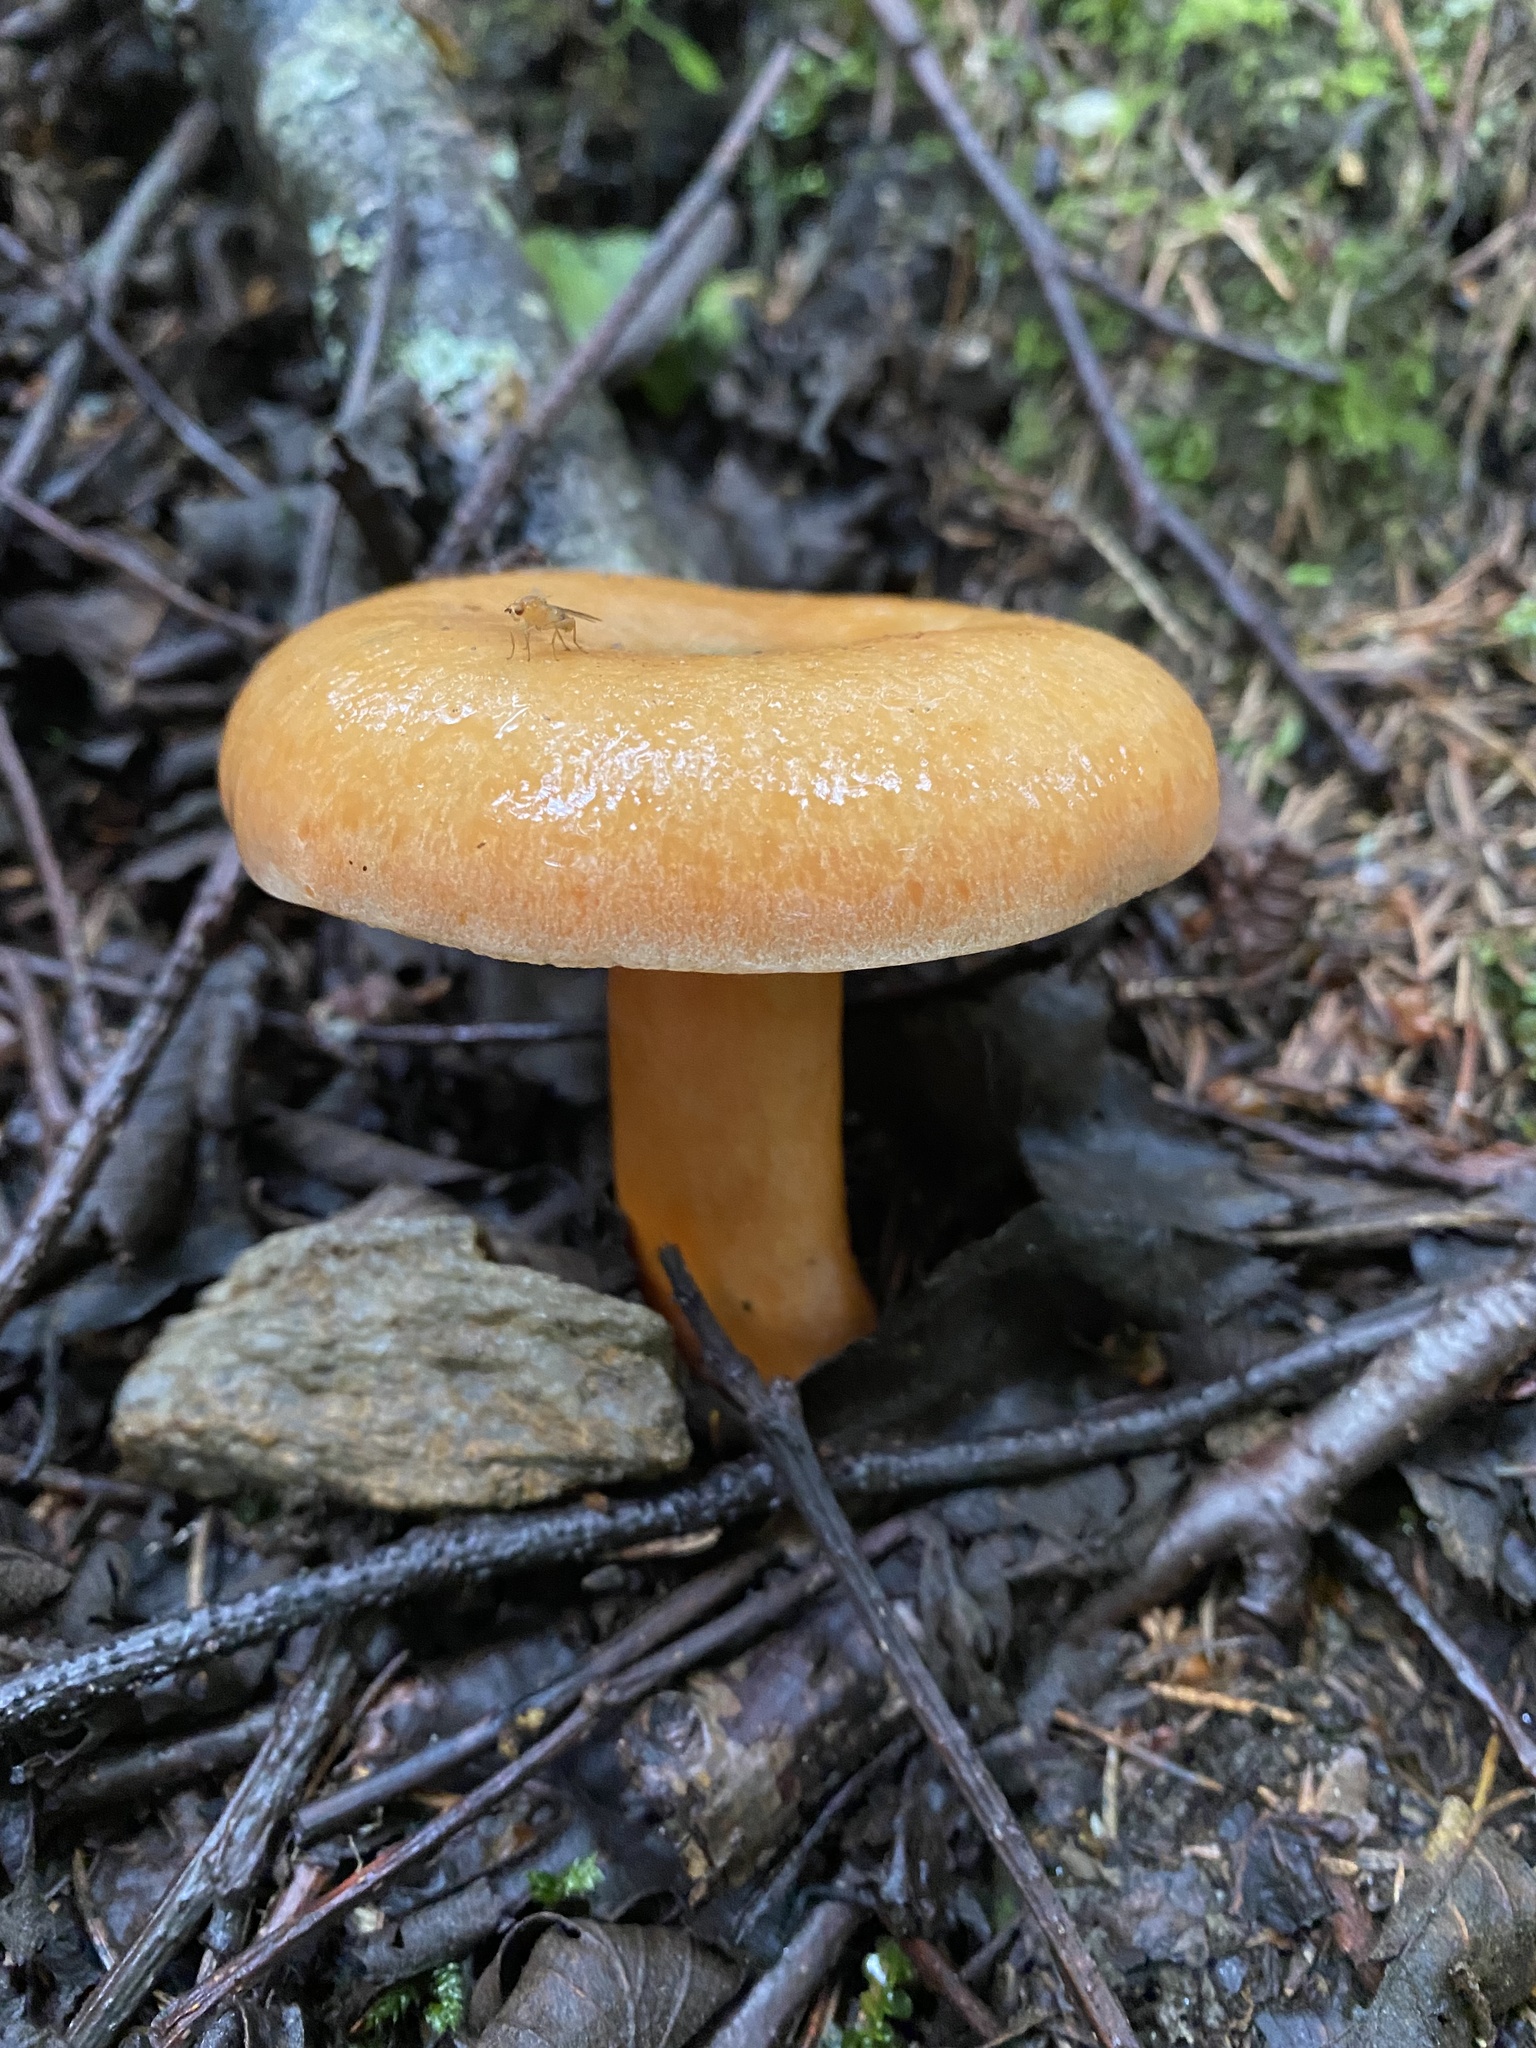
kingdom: Fungi
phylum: Basidiomycota
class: Agaricomycetes
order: Russulales
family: Russulaceae
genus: Lactarius
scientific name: Lactarius deterrimus
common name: False saffron milkcap
